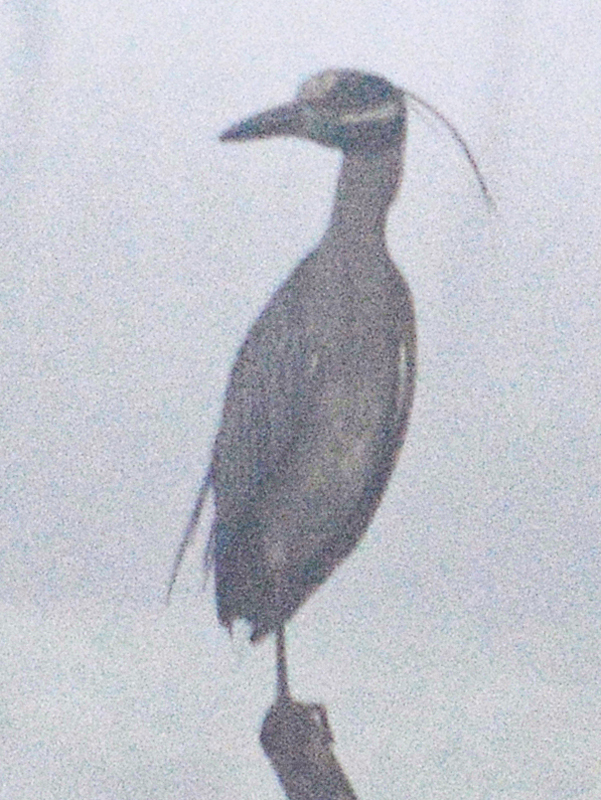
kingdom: Animalia
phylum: Chordata
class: Aves
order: Pelecaniformes
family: Ardeidae
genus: Nyctanassa
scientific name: Nyctanassa violacea
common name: Yellow-crowned night heron
